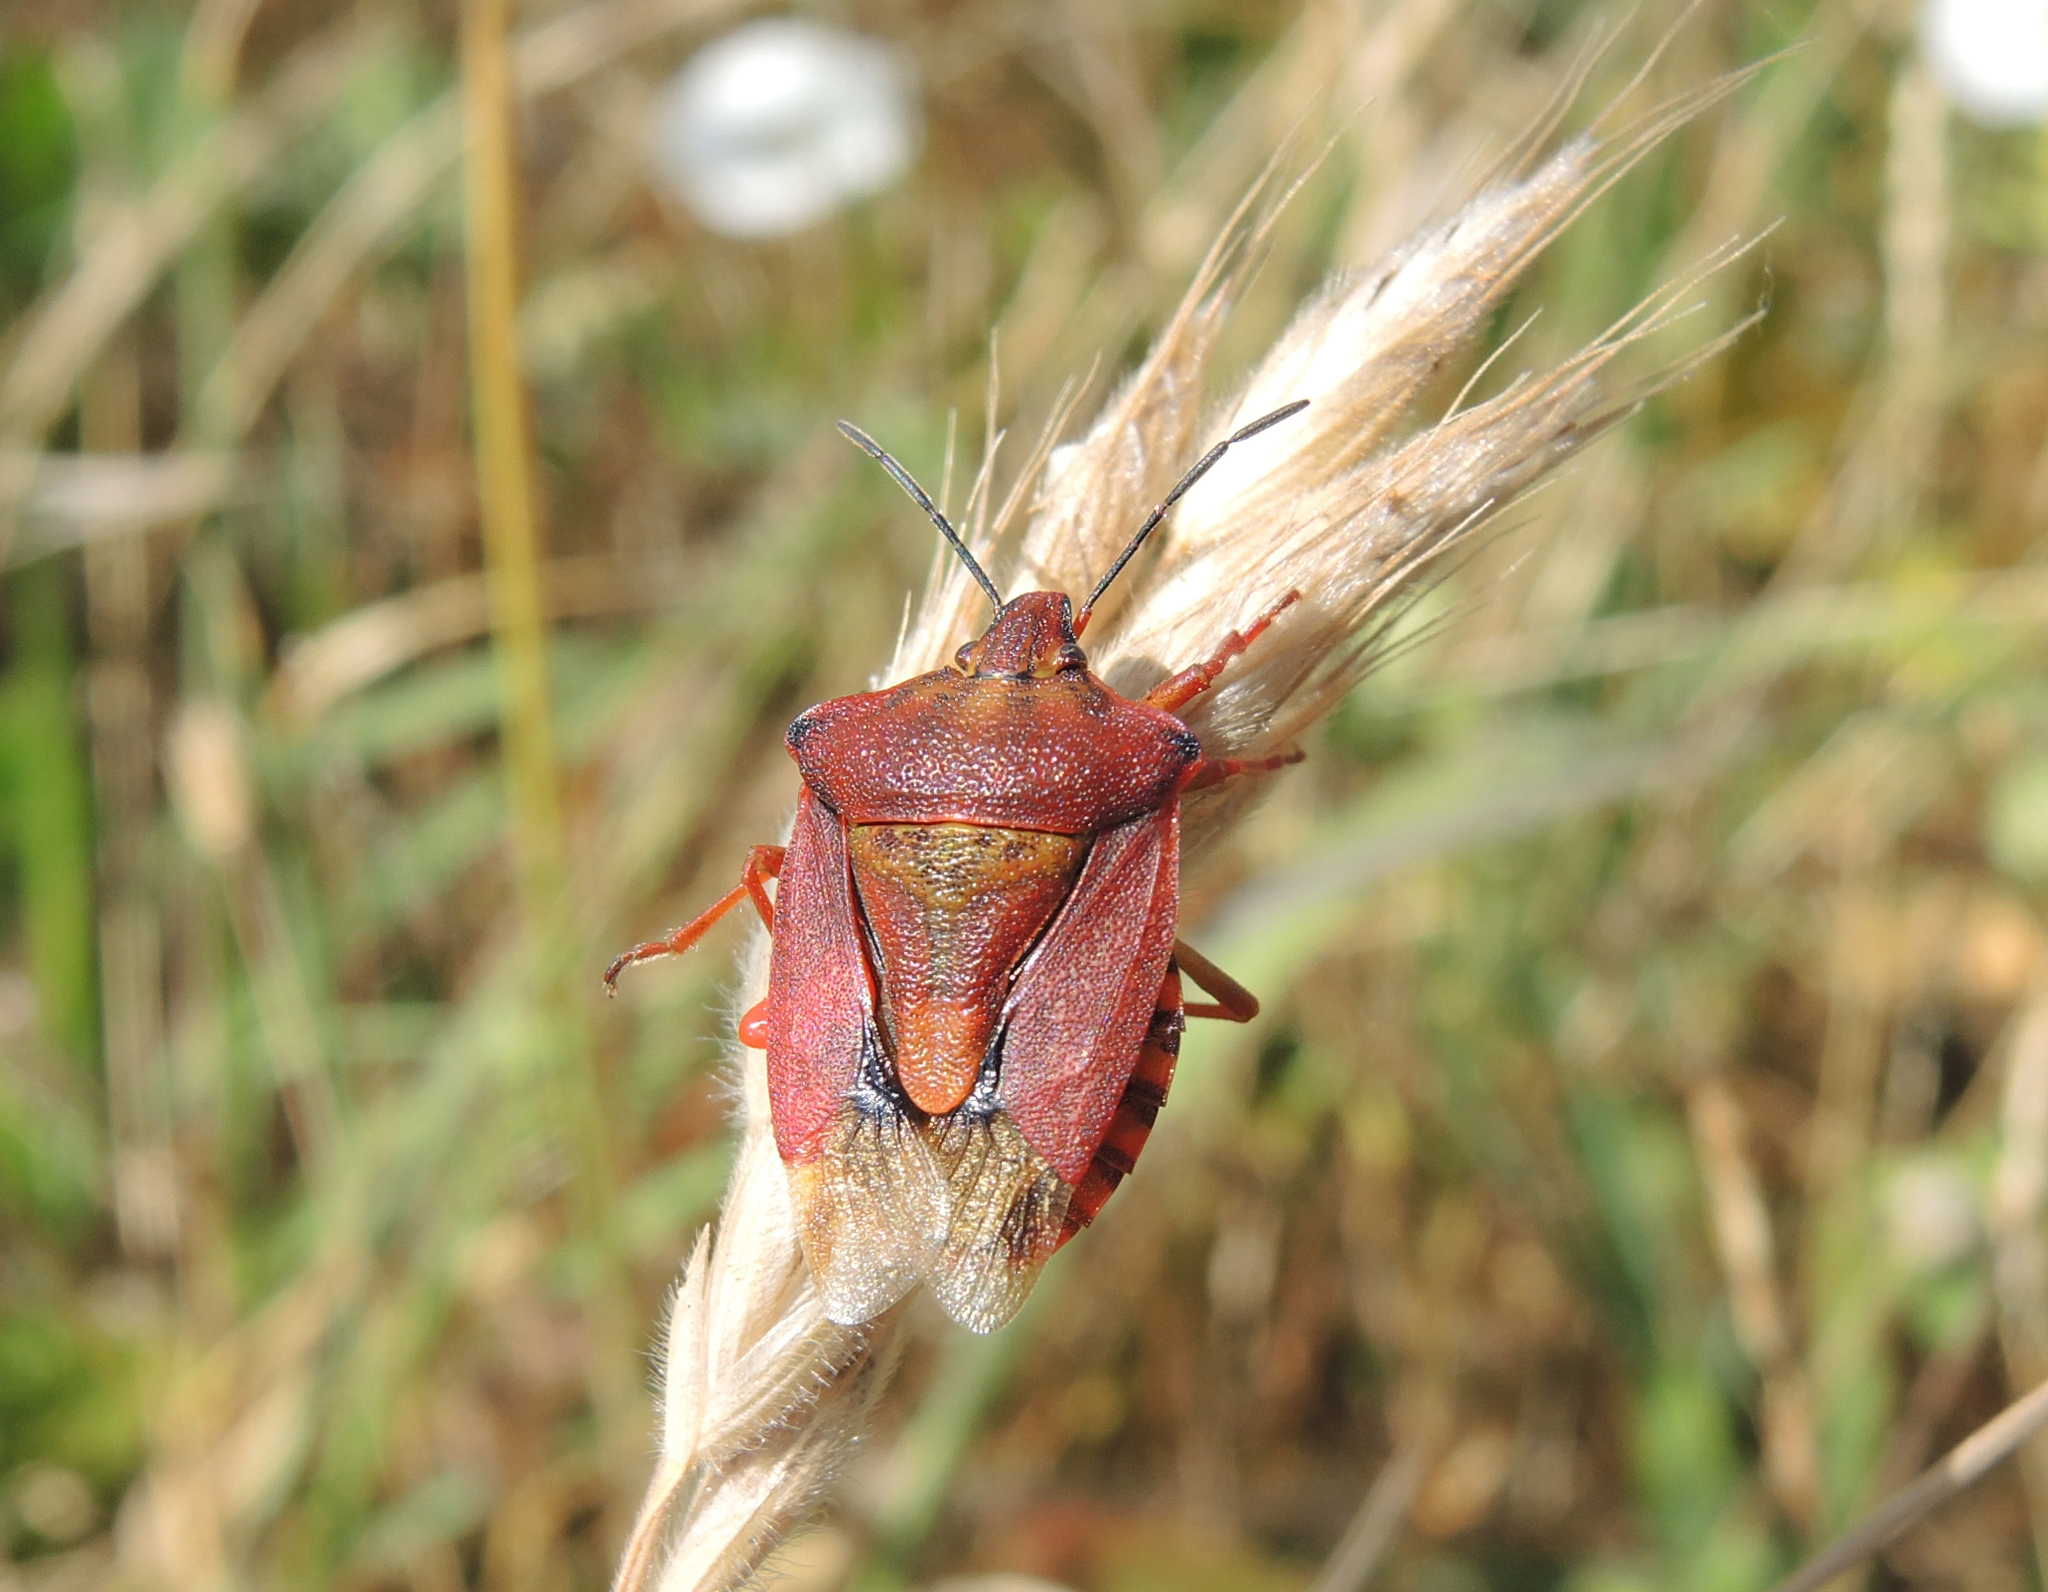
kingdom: Animalia
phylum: Arthropoda
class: Insecta
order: Hemiptera
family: Pentatomidae
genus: Carpocoris
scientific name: Carpocoris mediterraneus
